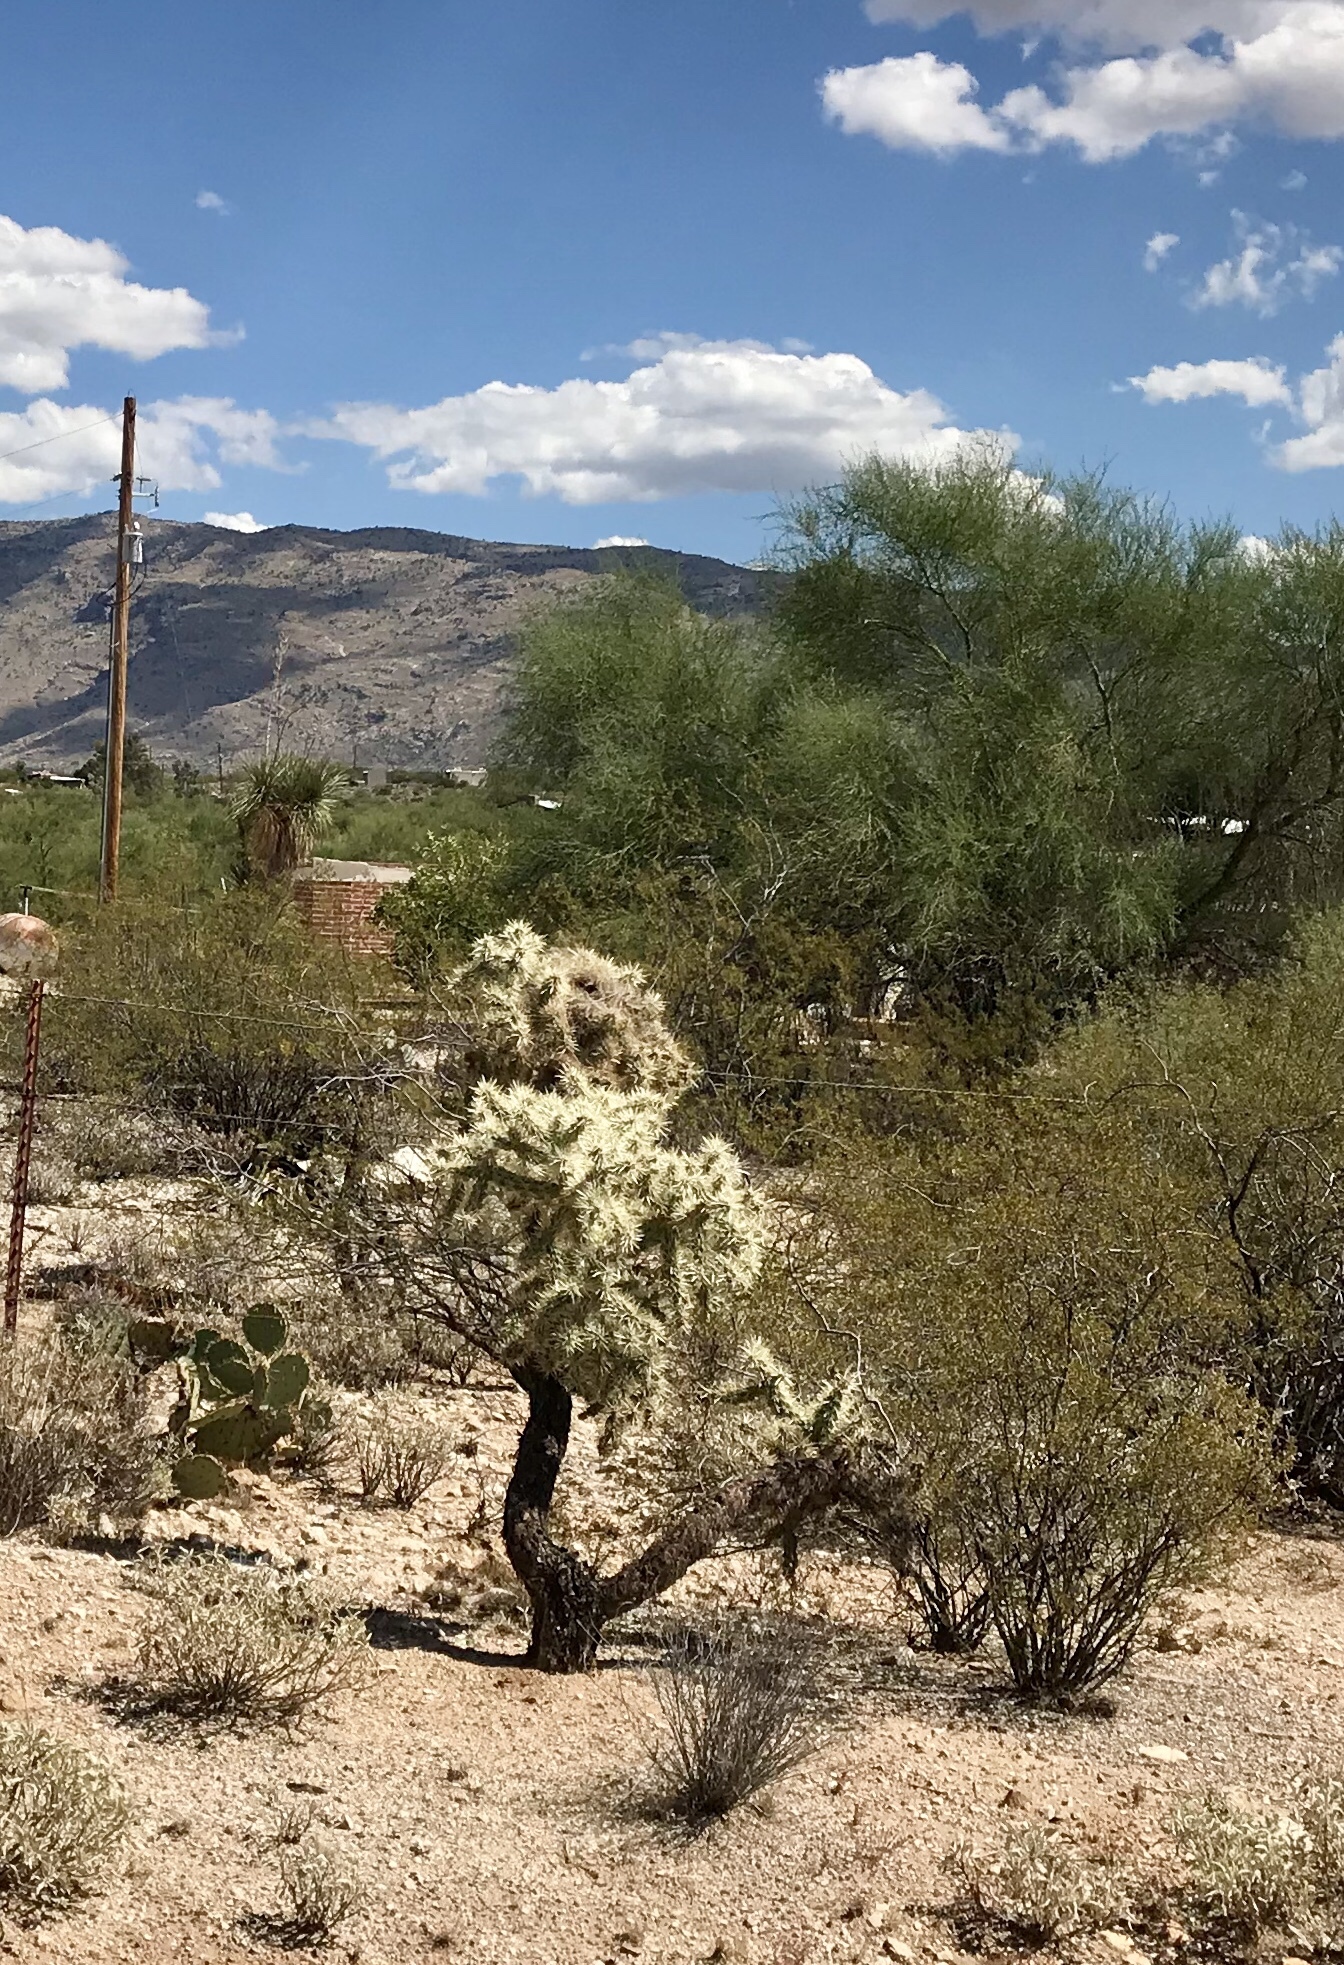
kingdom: Plantae
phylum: Tracheophyta
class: Magnoliopsida
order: Caryophyllales
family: Cactaceae
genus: Cylindropuntia
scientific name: Cylindropuntia fulgida
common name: Jumping cholla
